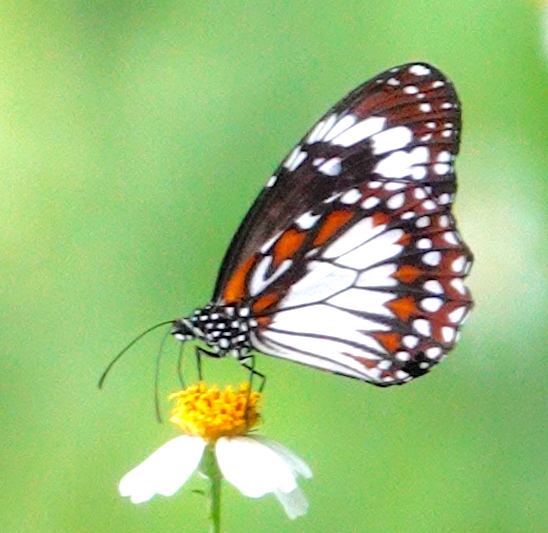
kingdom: Animalia
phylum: Arthropoda
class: Insecta
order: Lepidoptera
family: Nymphalidae
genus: Danaus
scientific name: Danaus affinis
